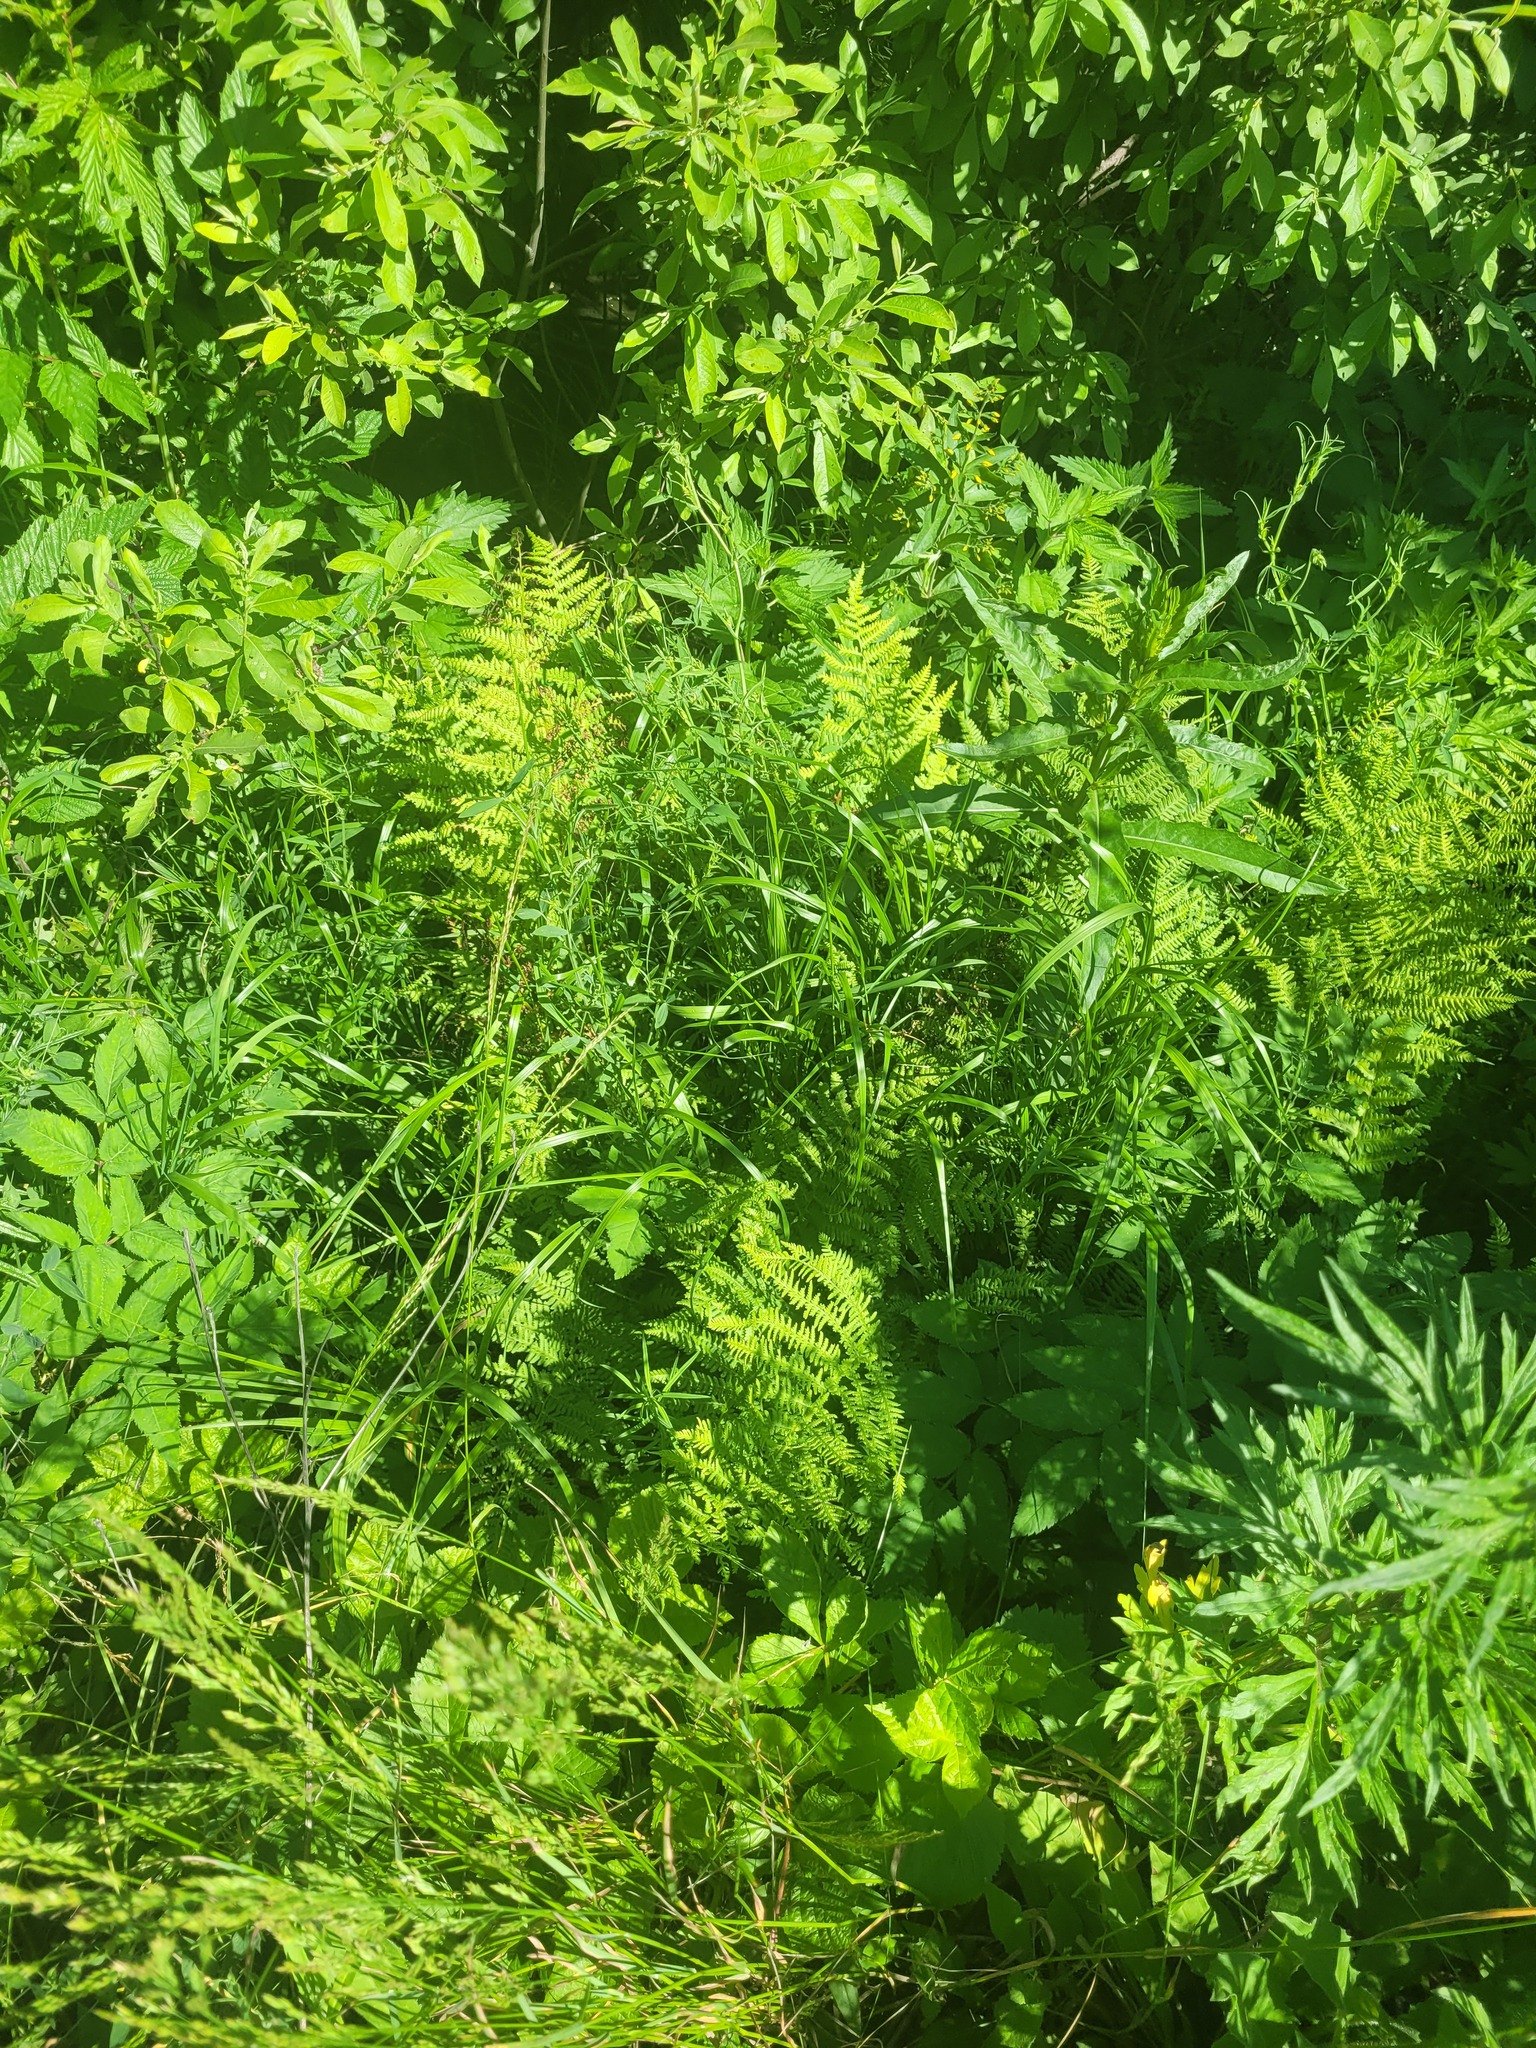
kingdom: Plantae
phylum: Tracheophyta
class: Polypodiopsida
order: Polypodiales
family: Athyriaceae
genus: Athyrium
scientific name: Athyrium filix-femina
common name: Lady fern
